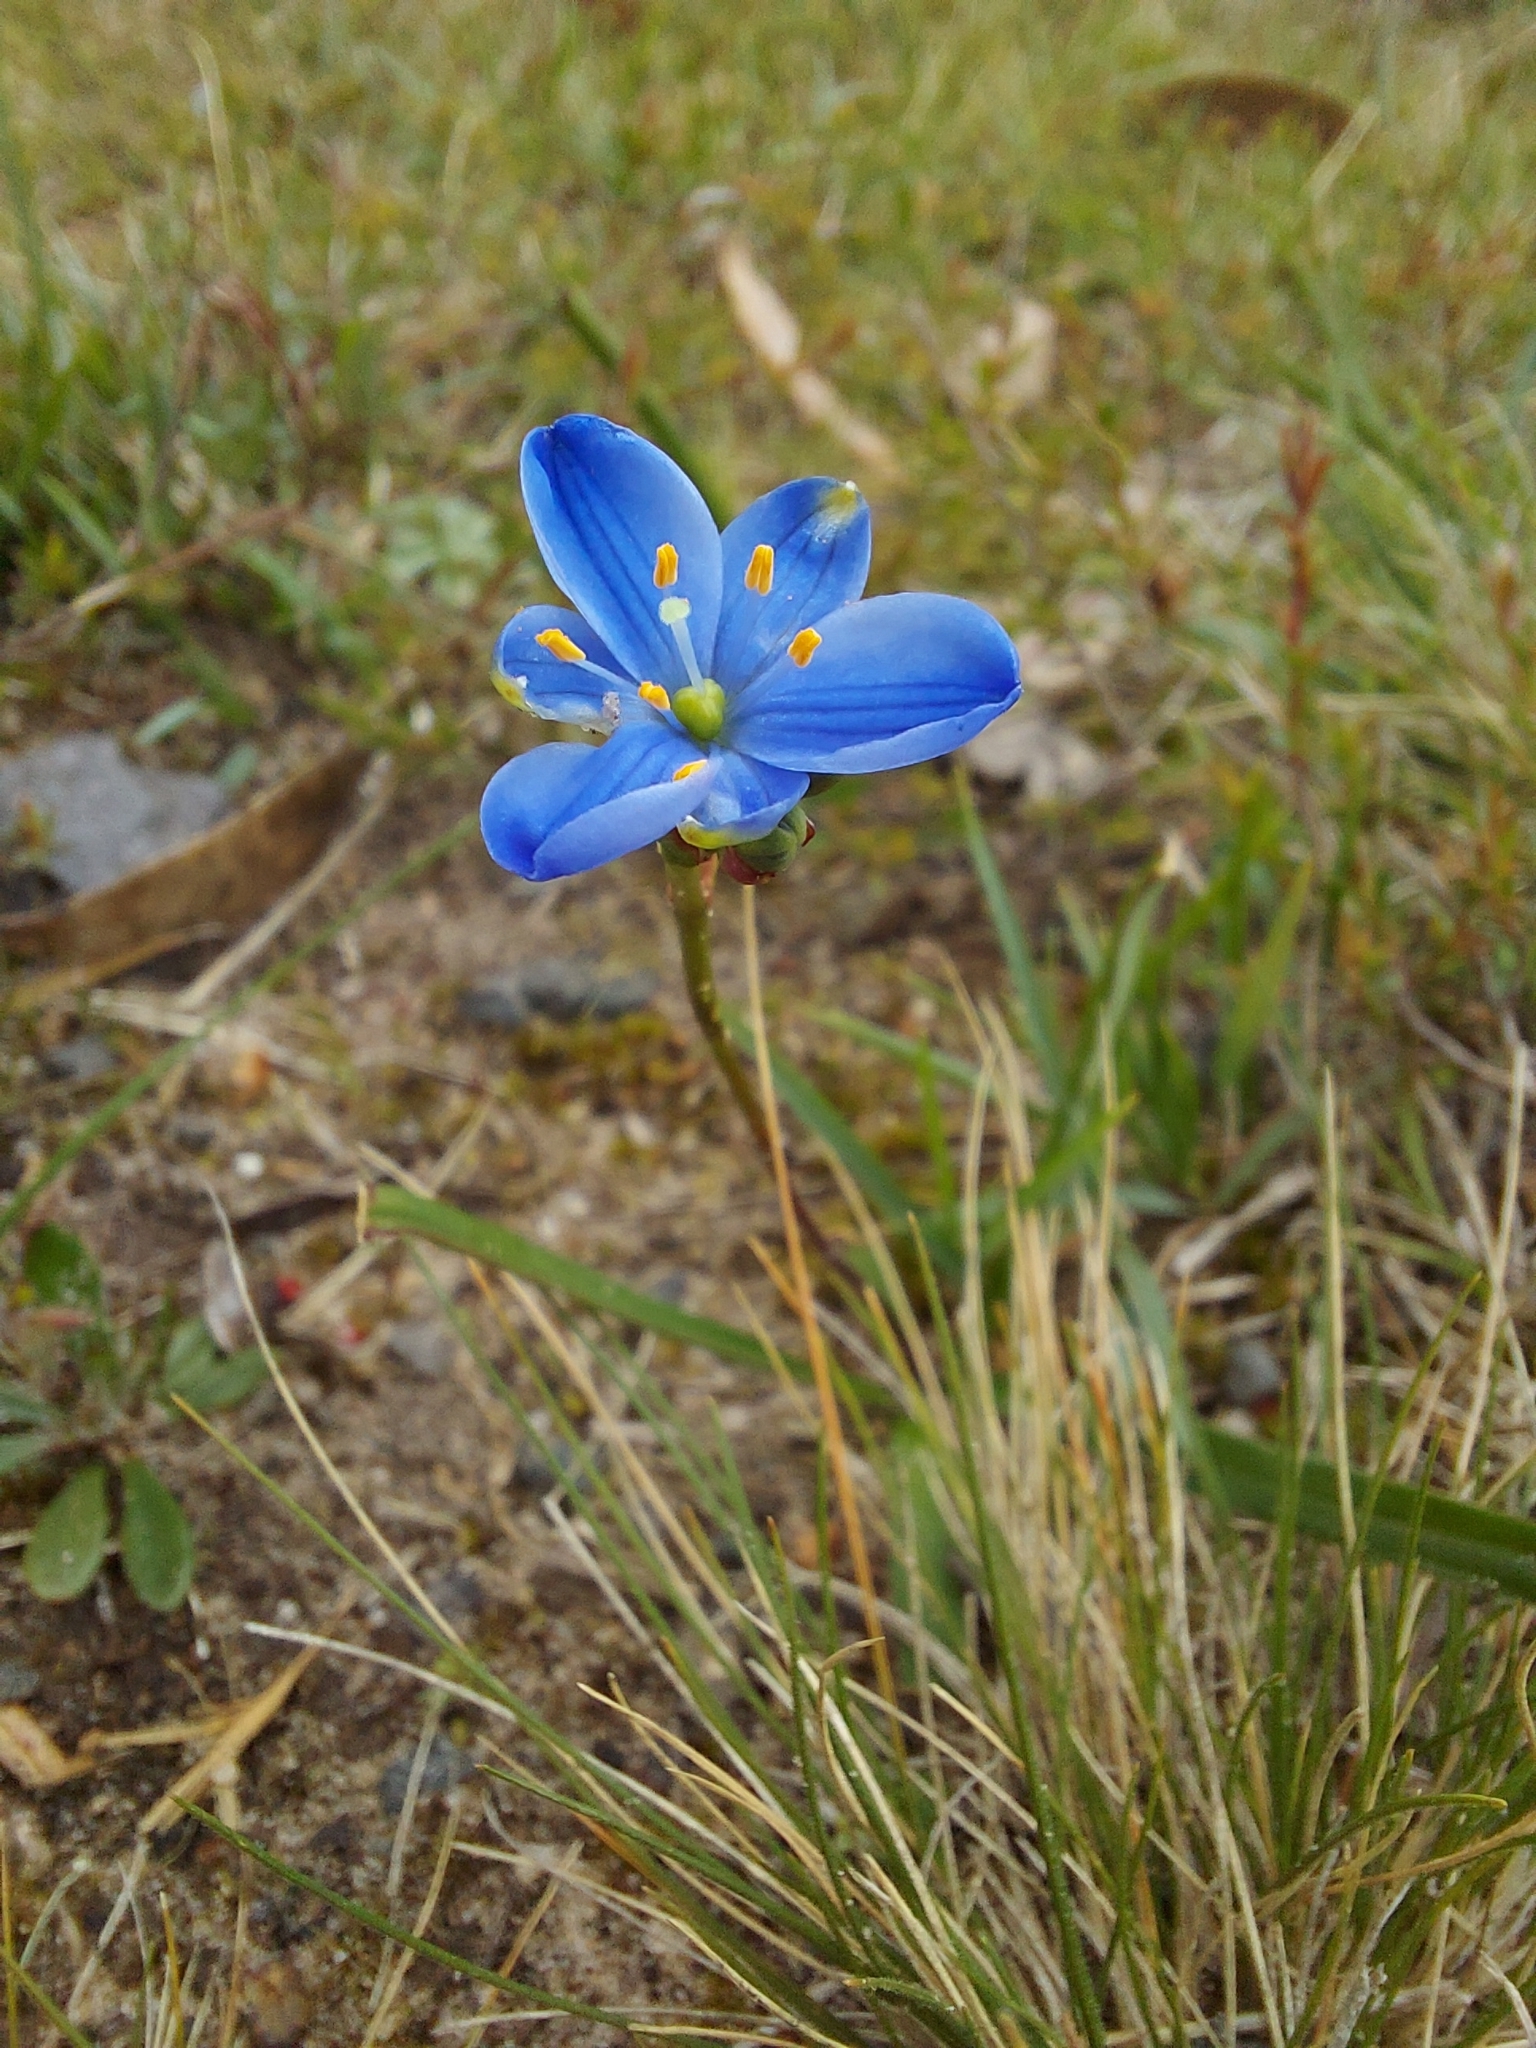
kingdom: Plantae
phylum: Tracheophyta
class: Liliopsida
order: Asparagales
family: Asphodelaceae
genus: Chamaescilla
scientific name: Chamaescilla corymbosa
